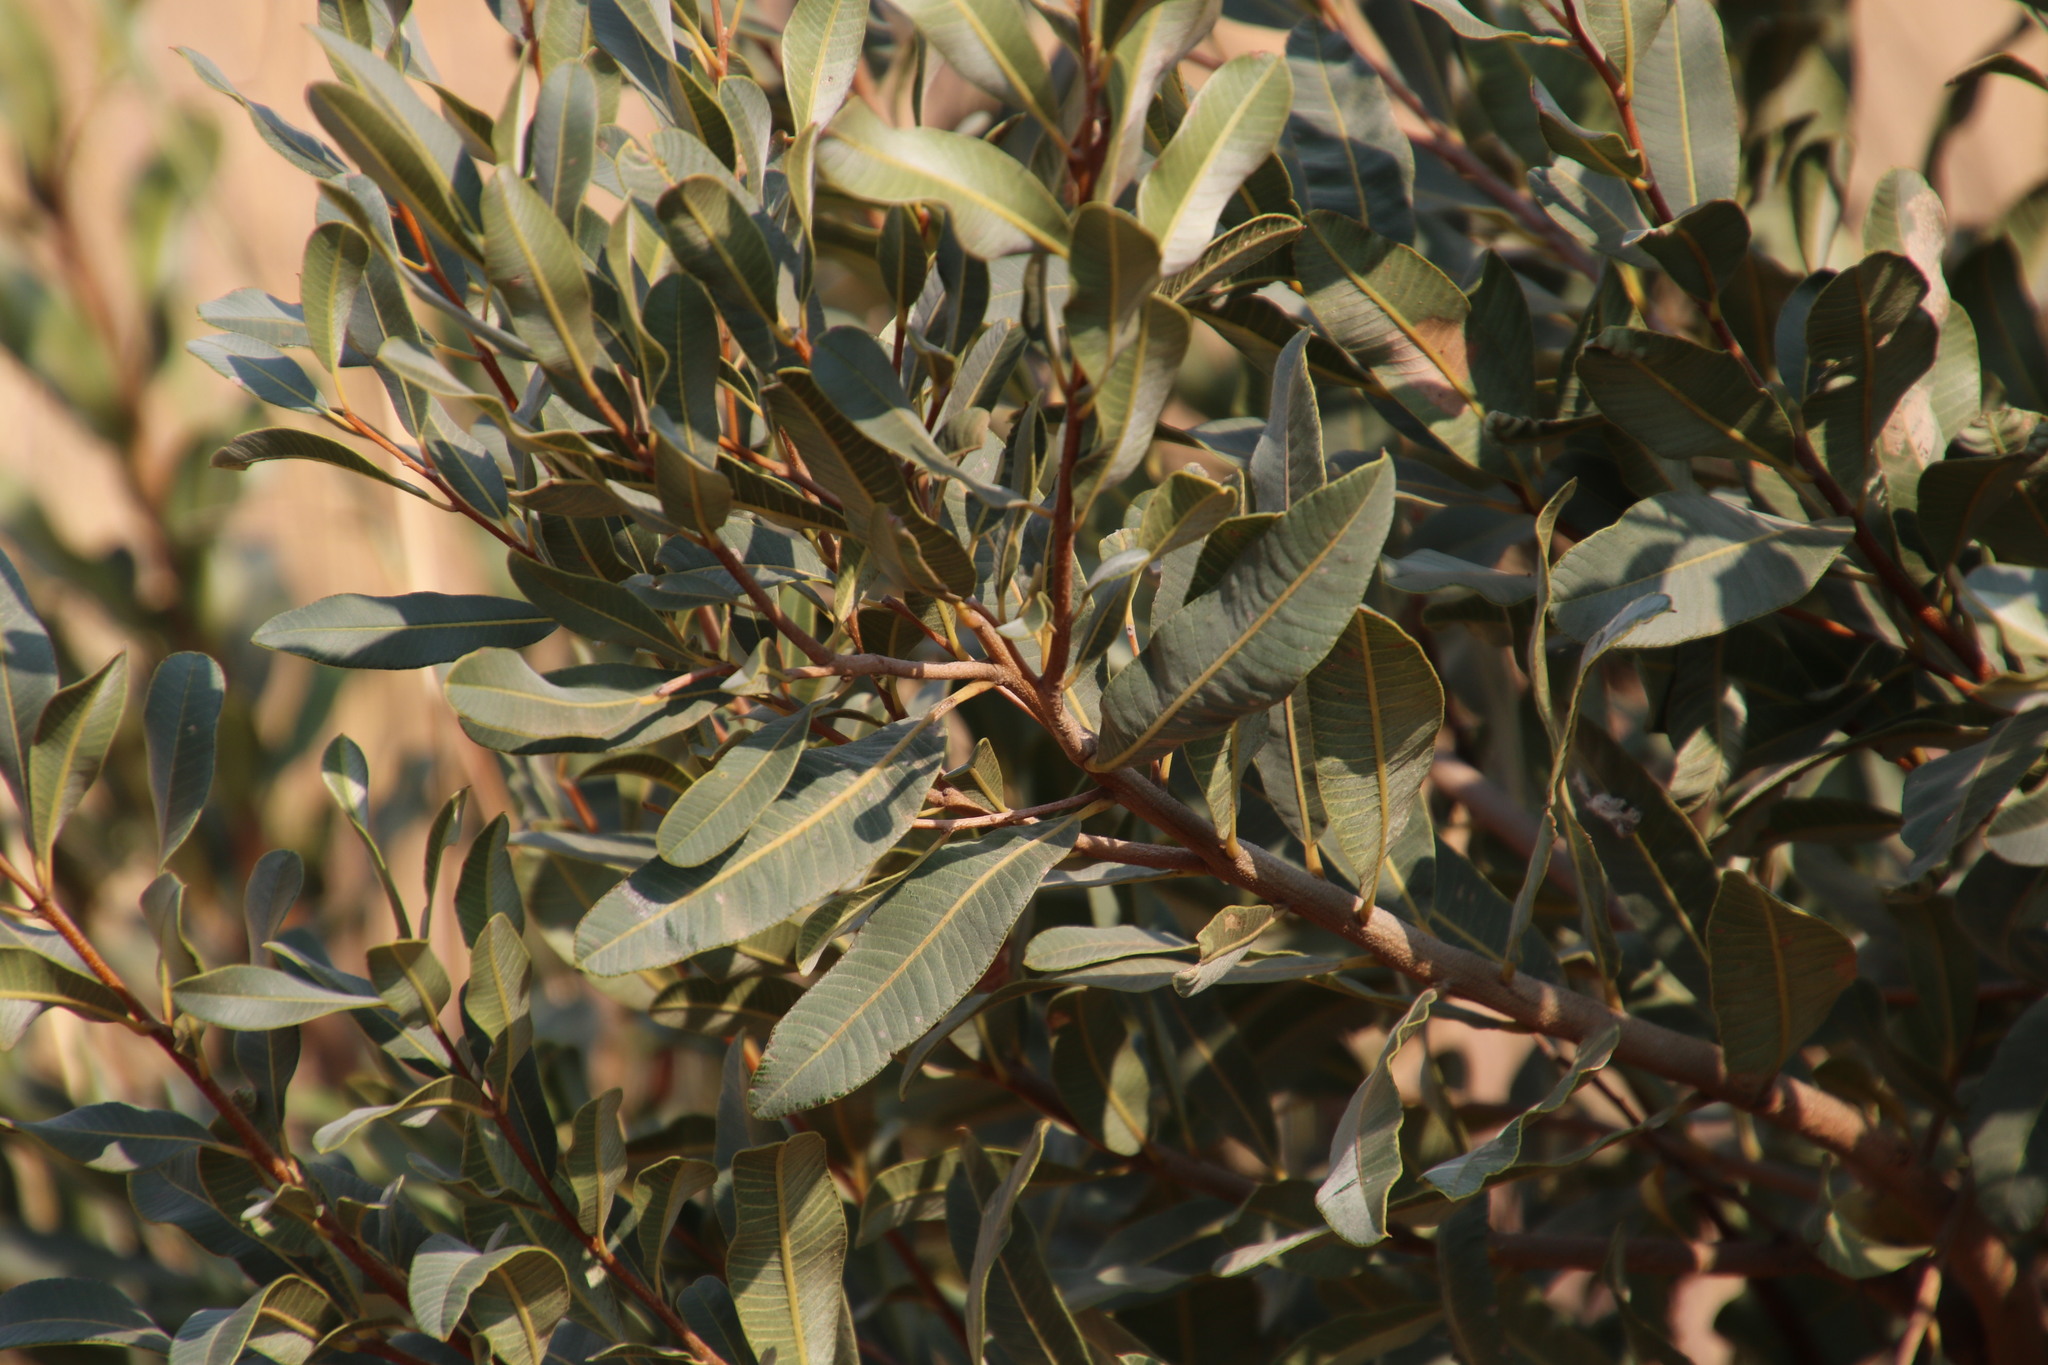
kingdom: Plantae
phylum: Tracheophyta
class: Magnoliopsida
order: Sapindales
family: Anacardiaceae
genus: Ozoroa
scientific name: Ozoroa paniculosa
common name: Bushveld ozoroa
